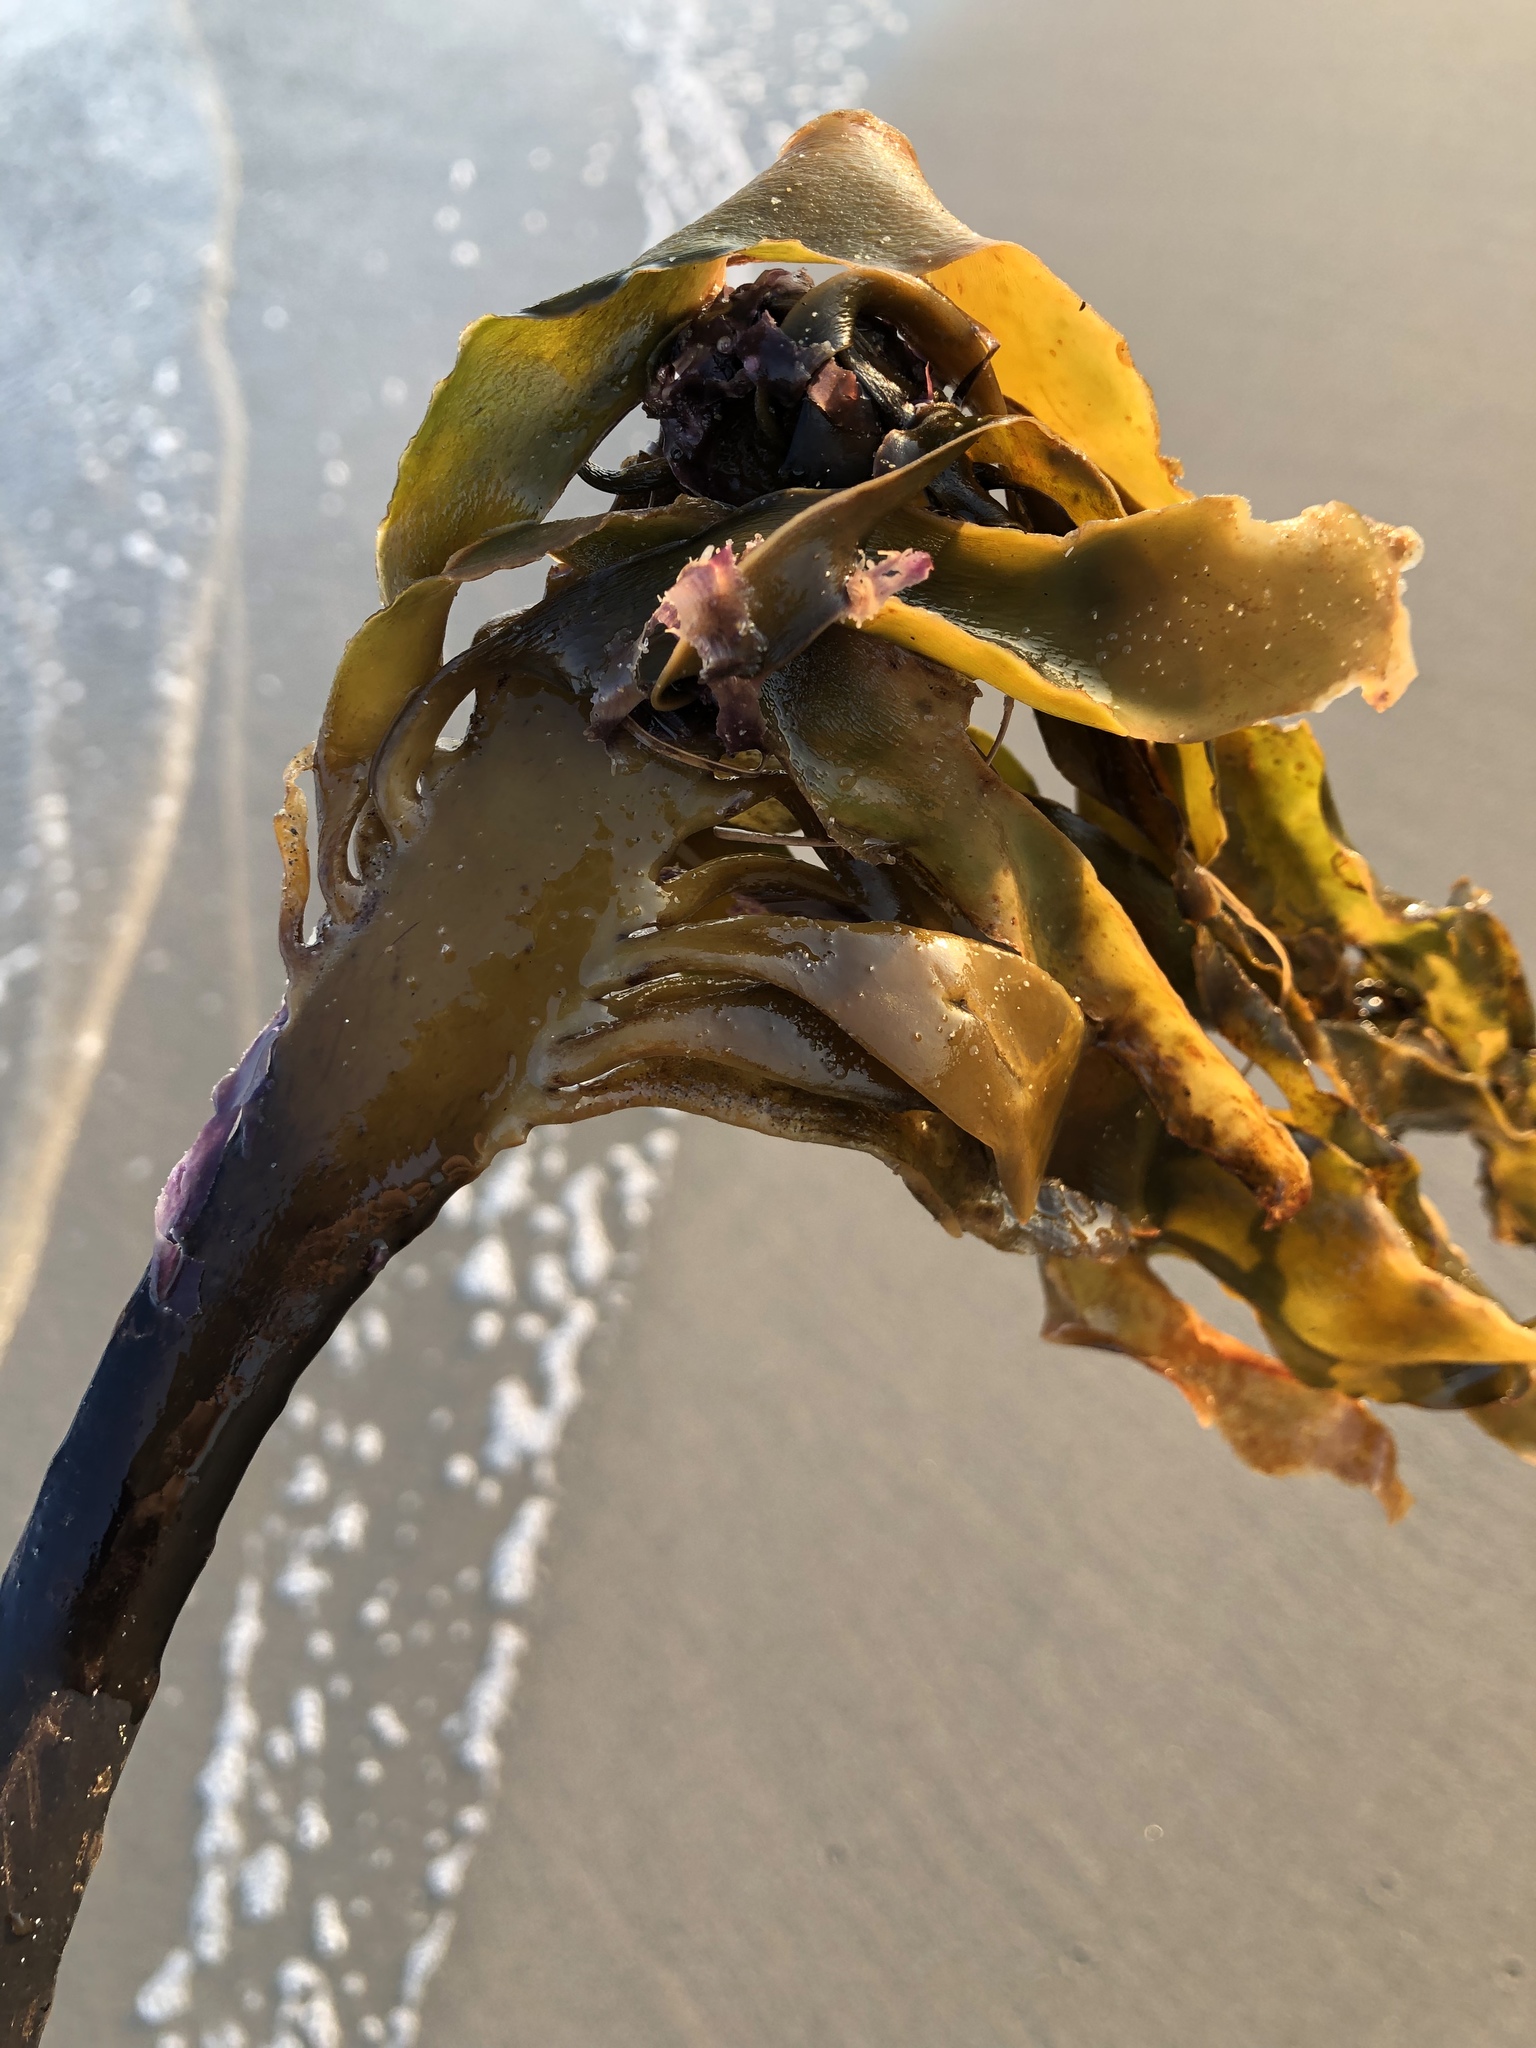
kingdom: Chromista
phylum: Ochrophyta
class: Phaeophyceae
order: Laminariales
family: Alariaceae
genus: Pterygophora
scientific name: Pterygophora californica
